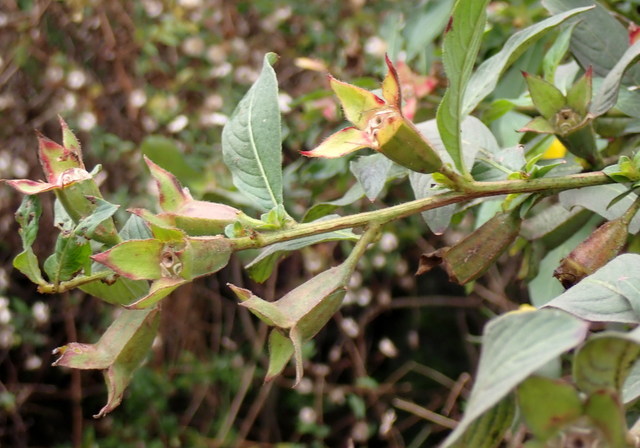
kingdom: Plantae
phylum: Tracheophyta
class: Magnoliopsida
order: Myrtales
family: Onagraceae
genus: Ludwigia
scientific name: Ludwigia peruviana
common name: Peruvian primrose-willow
